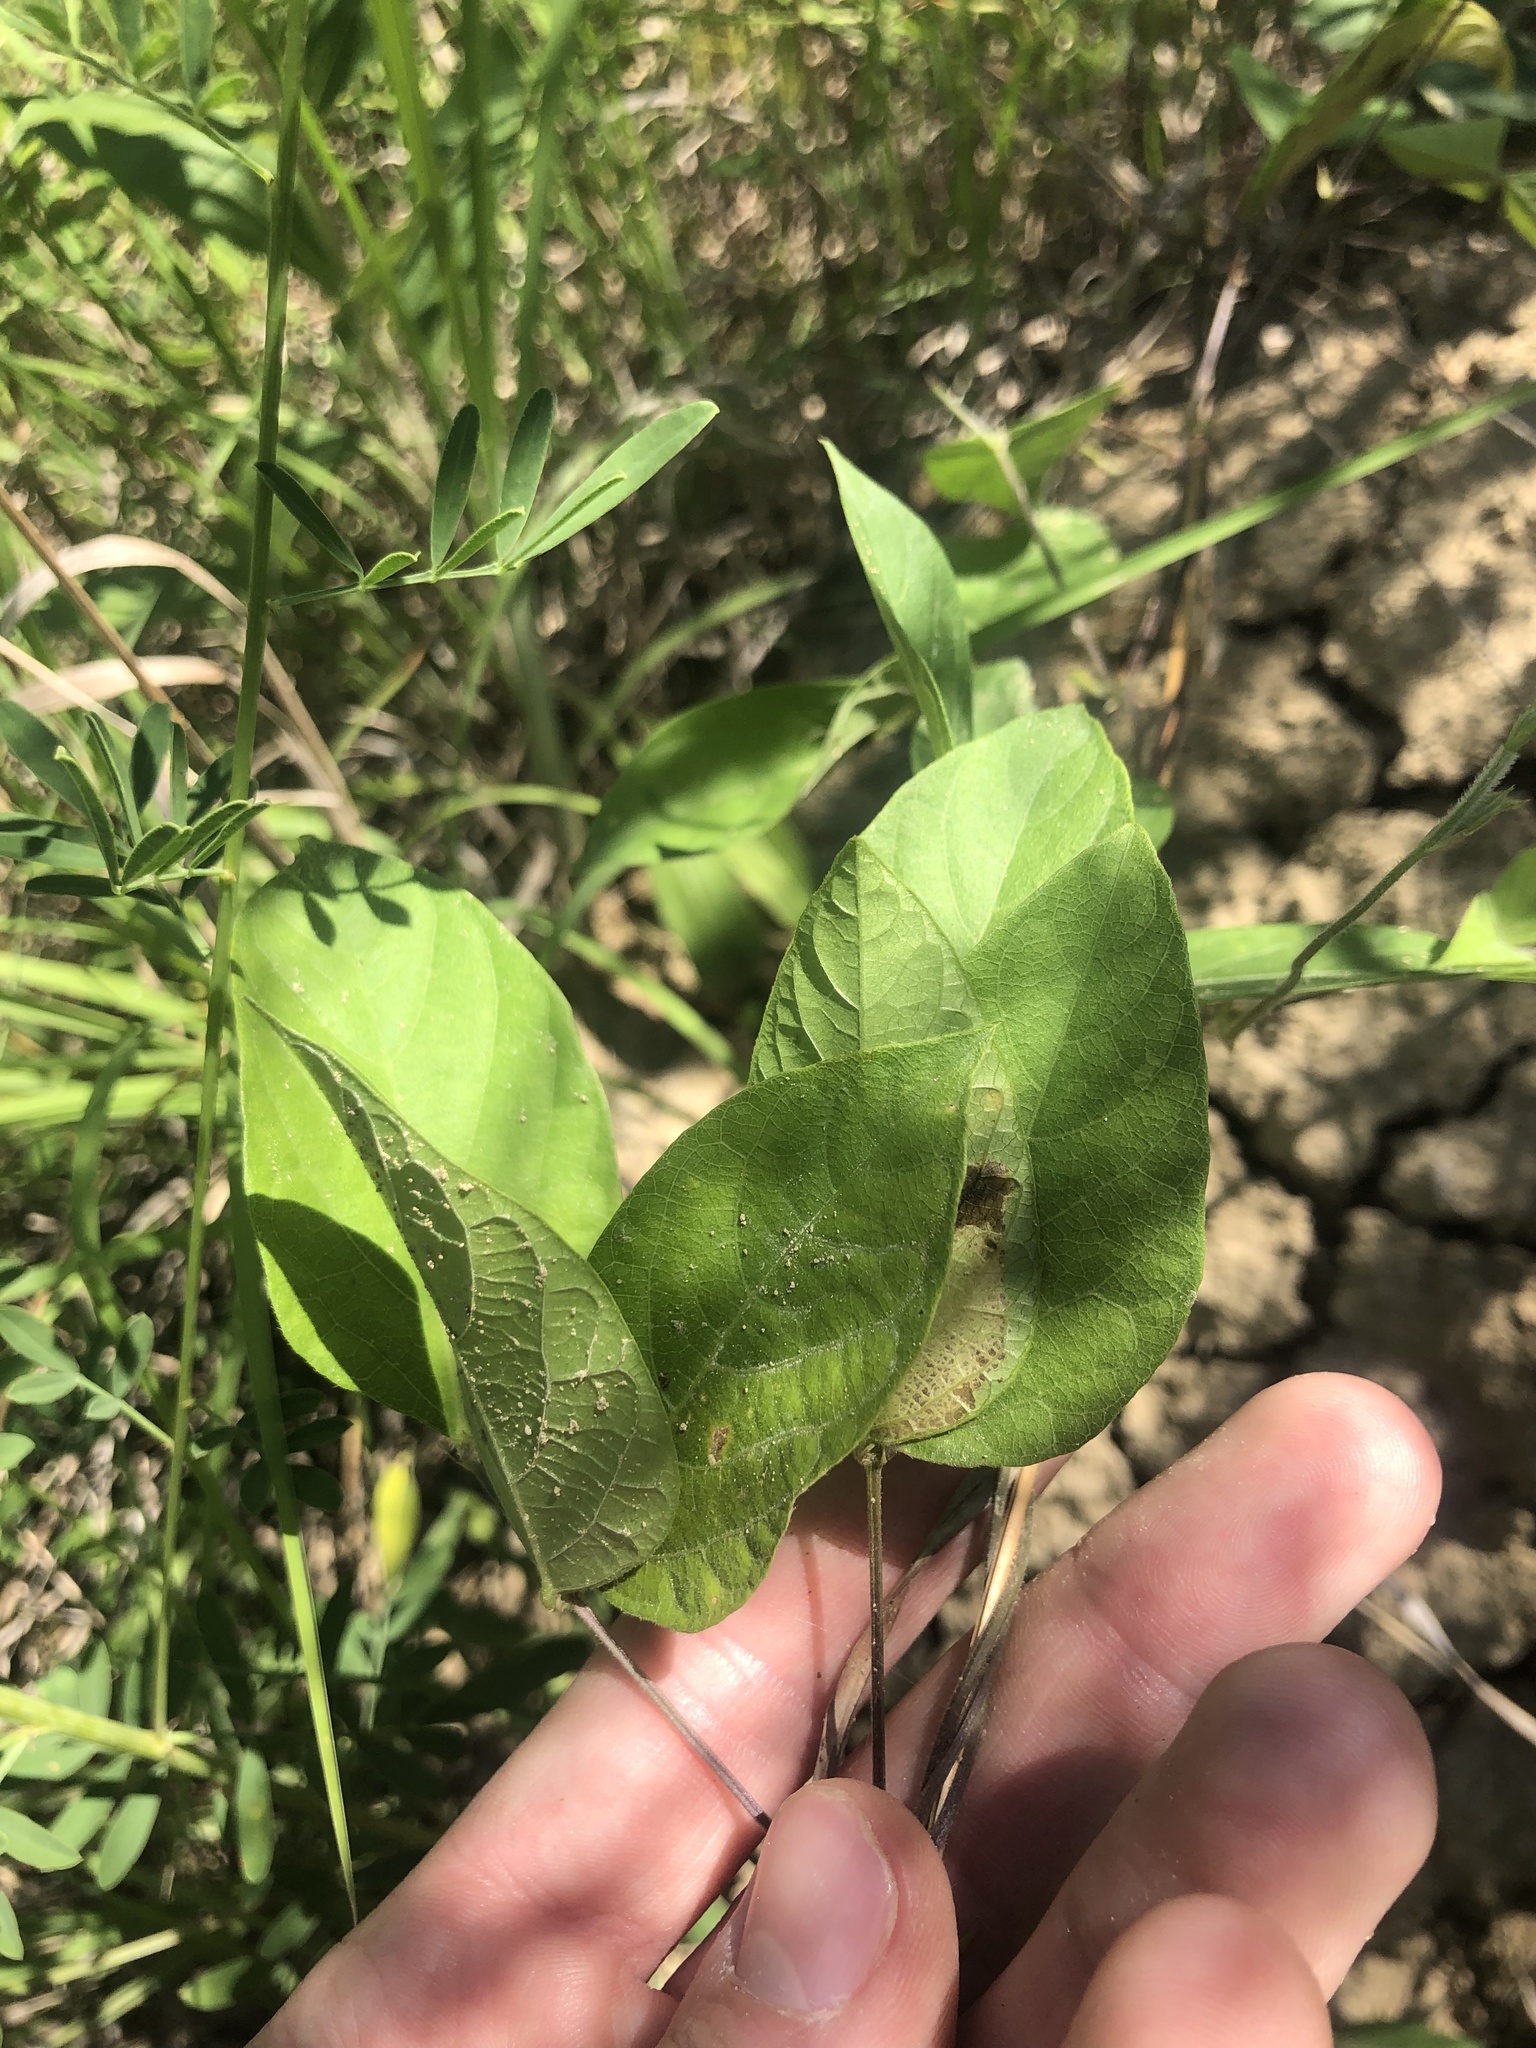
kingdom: Plantae
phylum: Tracheophyta
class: Magnoliopsida
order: Fabales
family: Fabaceae
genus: Centrosema
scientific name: Centrosema virginianum
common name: Butterfly-pea
